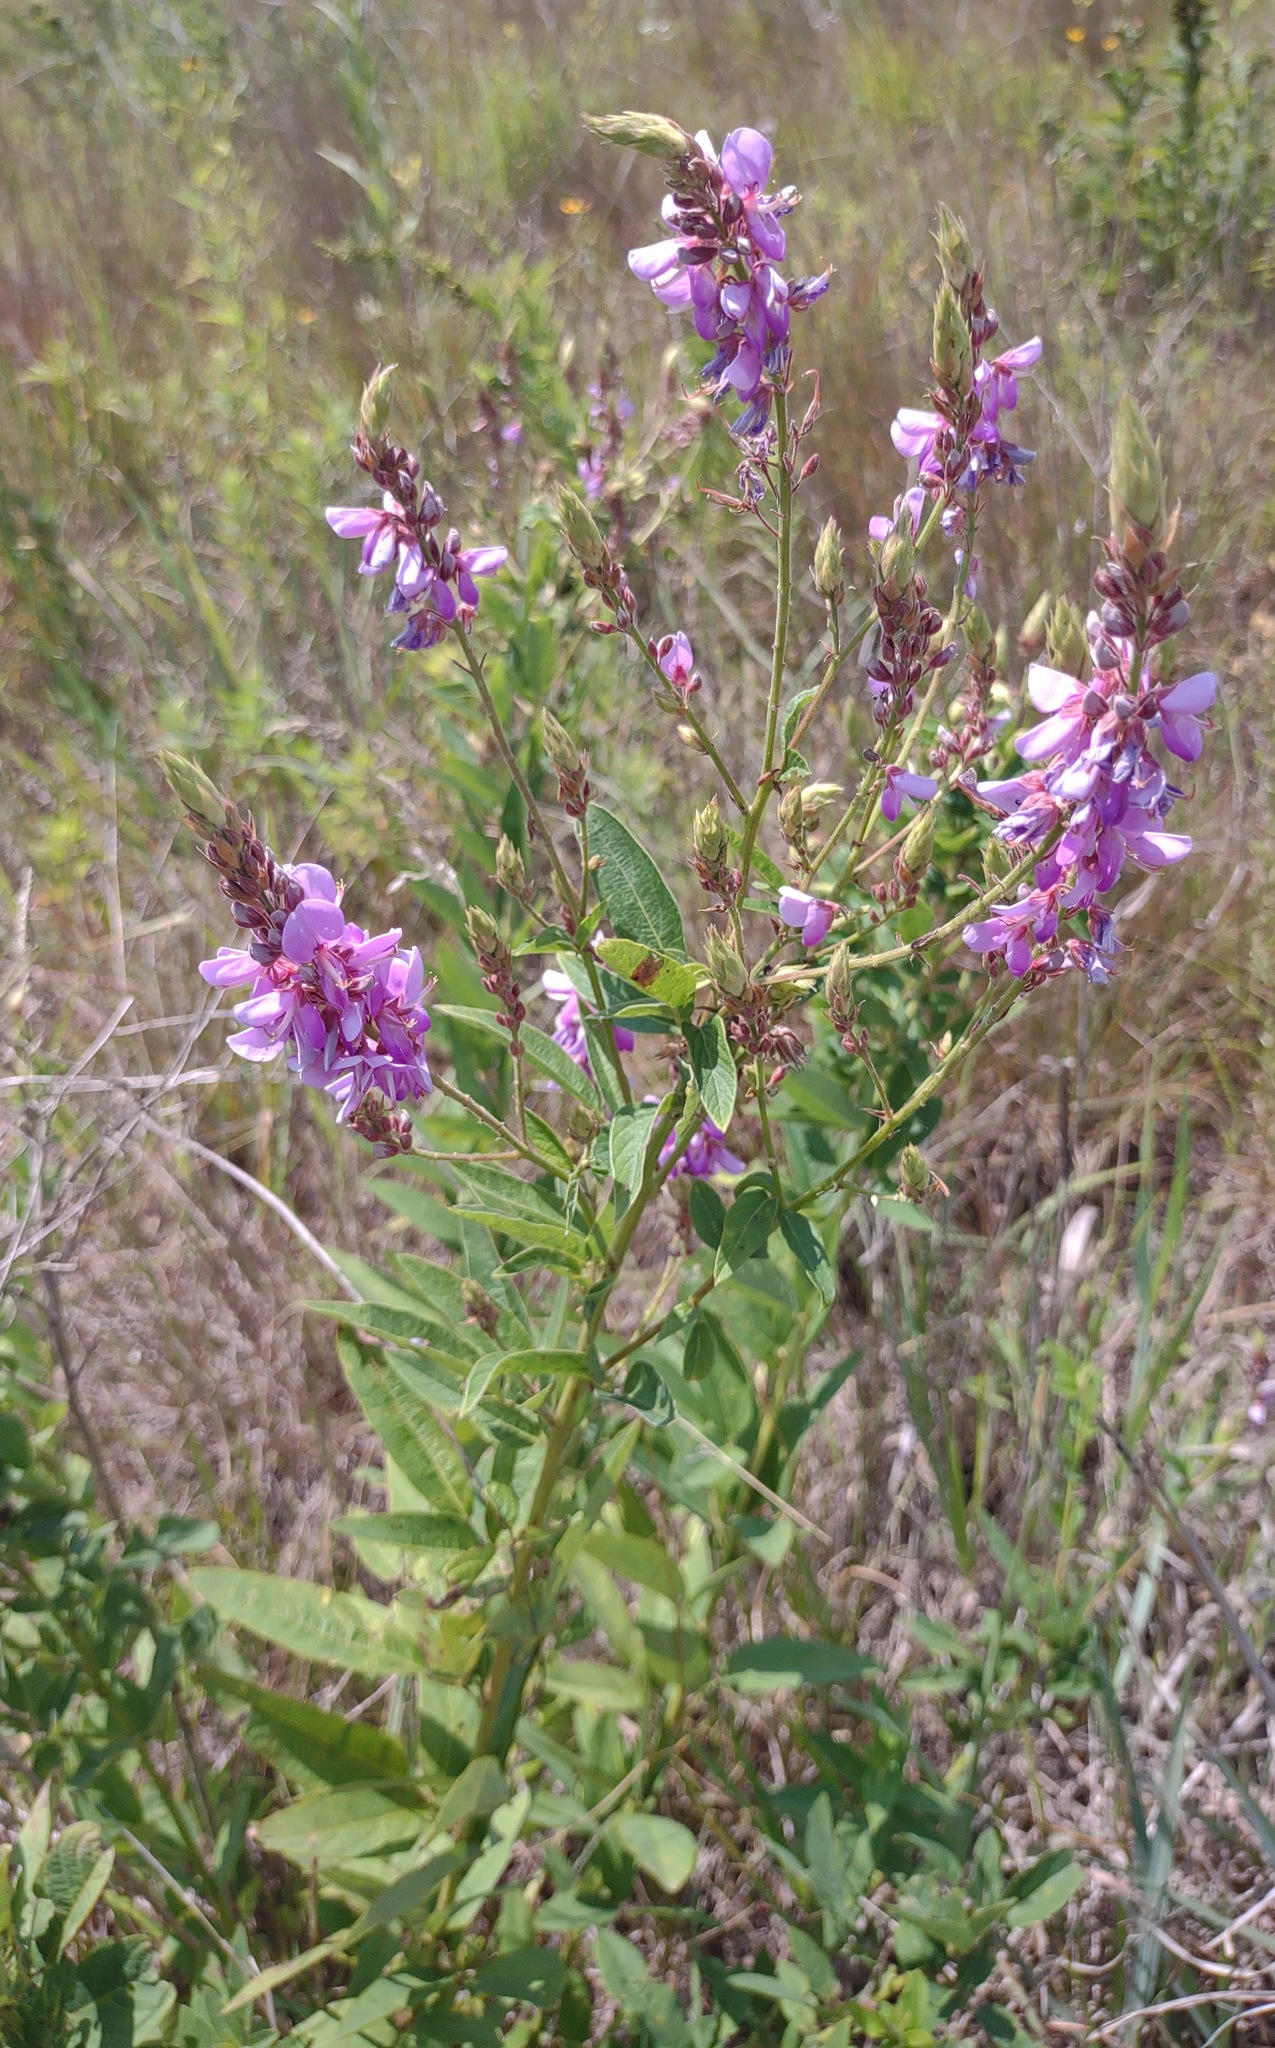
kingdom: Plantae
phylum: Tracheophyta
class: Magnoliopsida
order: Fabales
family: Fabaceae
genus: Desmodium
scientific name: Desmodium canadense
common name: Canada tick-trefoil
